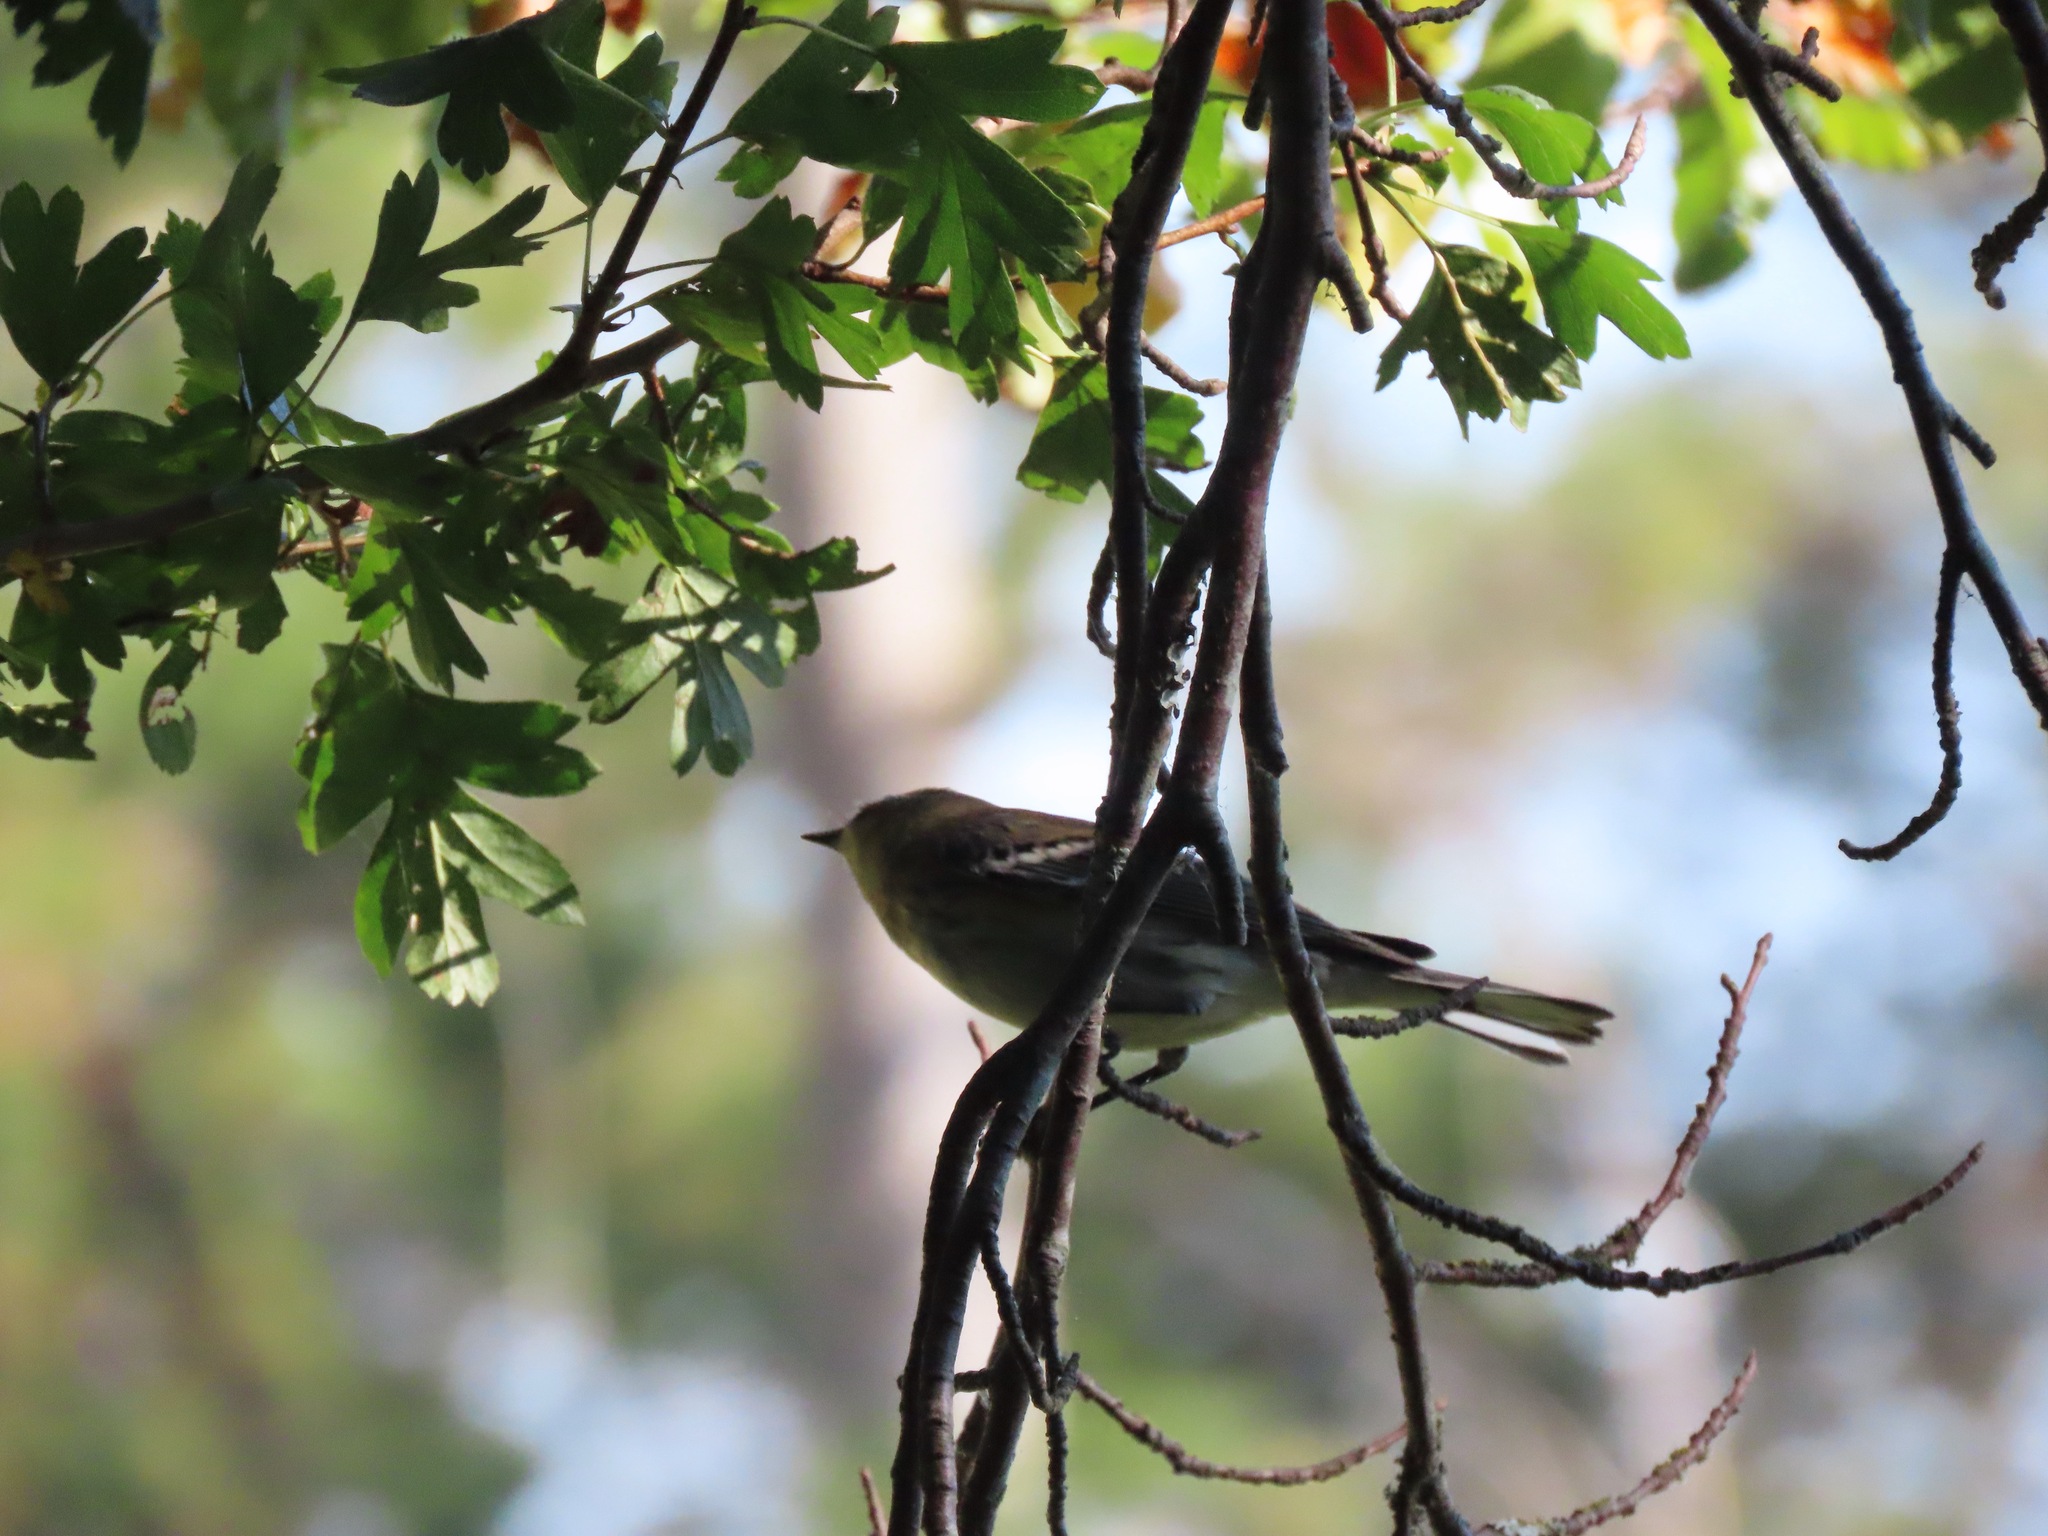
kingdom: Animalia
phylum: Chordata
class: Aves
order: Passeriformes
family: Parulidae
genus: Setophaga
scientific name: Setophaga coronata
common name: Myrtle warbler
